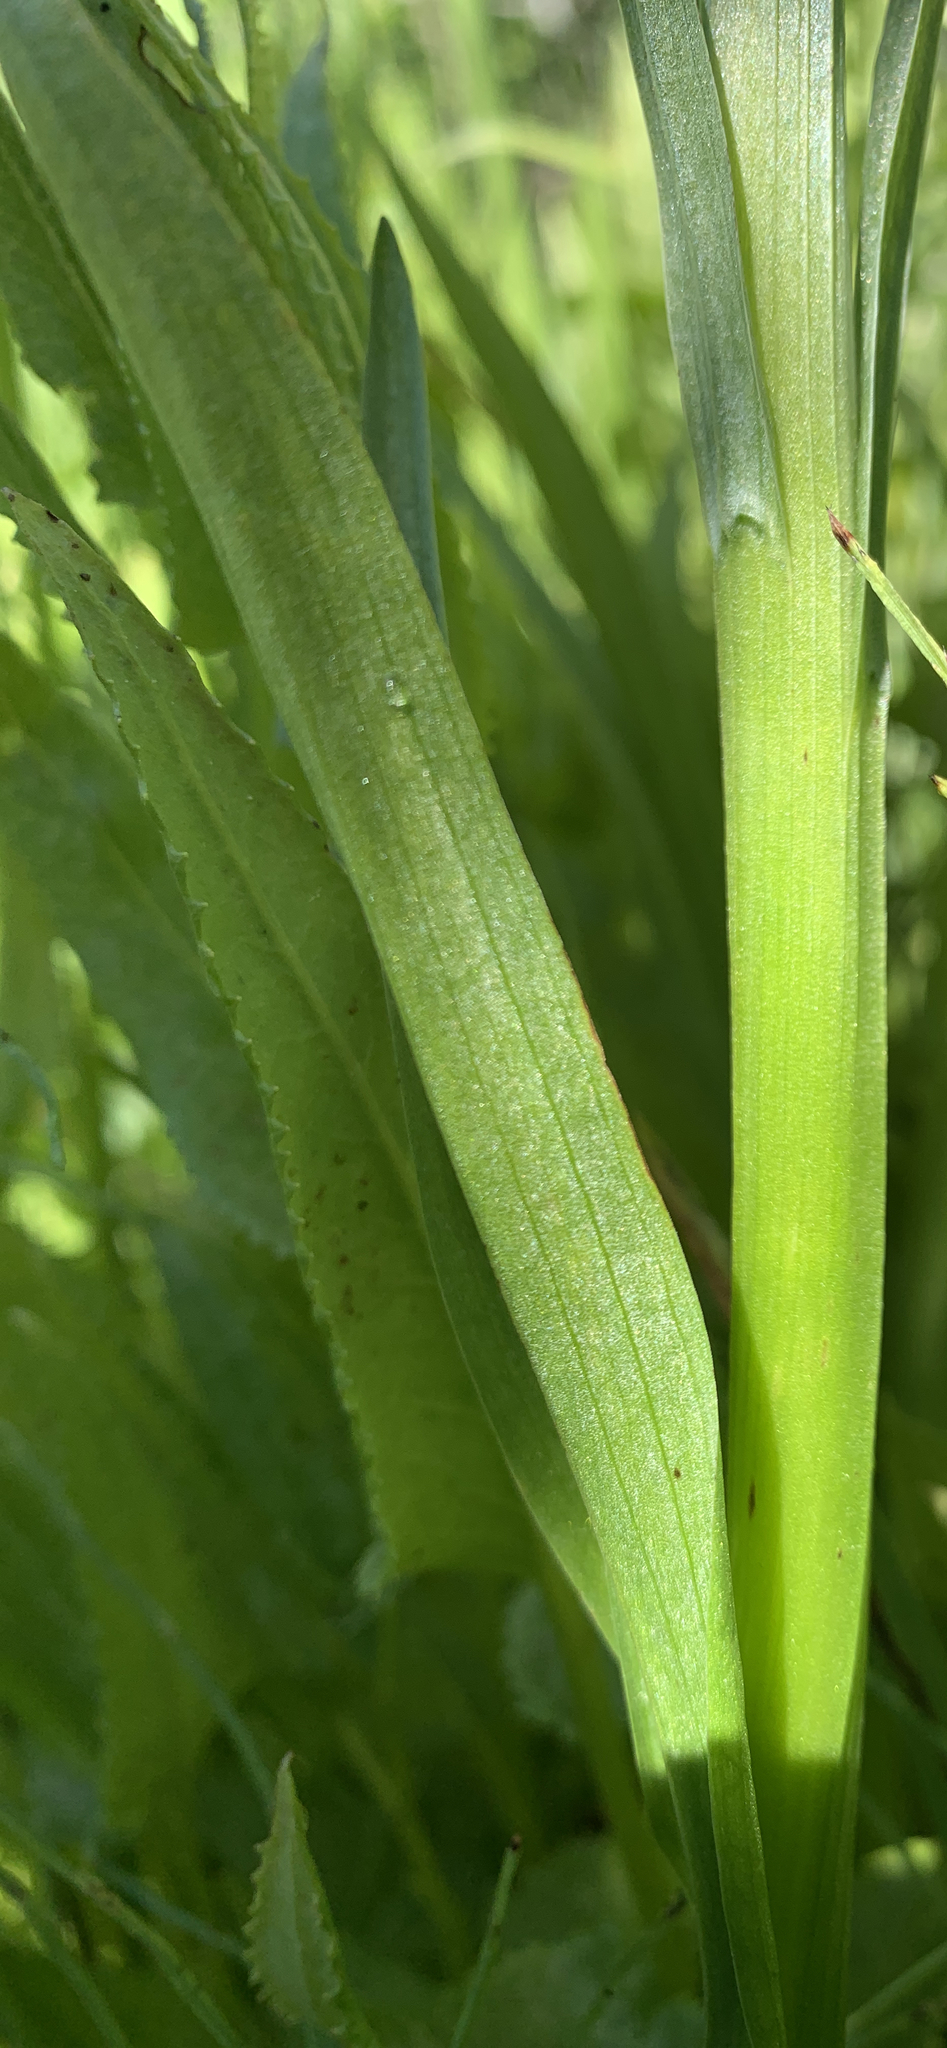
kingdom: Plantae
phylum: Tracheophyta
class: Liliopsida
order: Asparagales
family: Orchidaceae
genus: Platanthera
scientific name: Platanthera dilatata
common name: Bog candles
